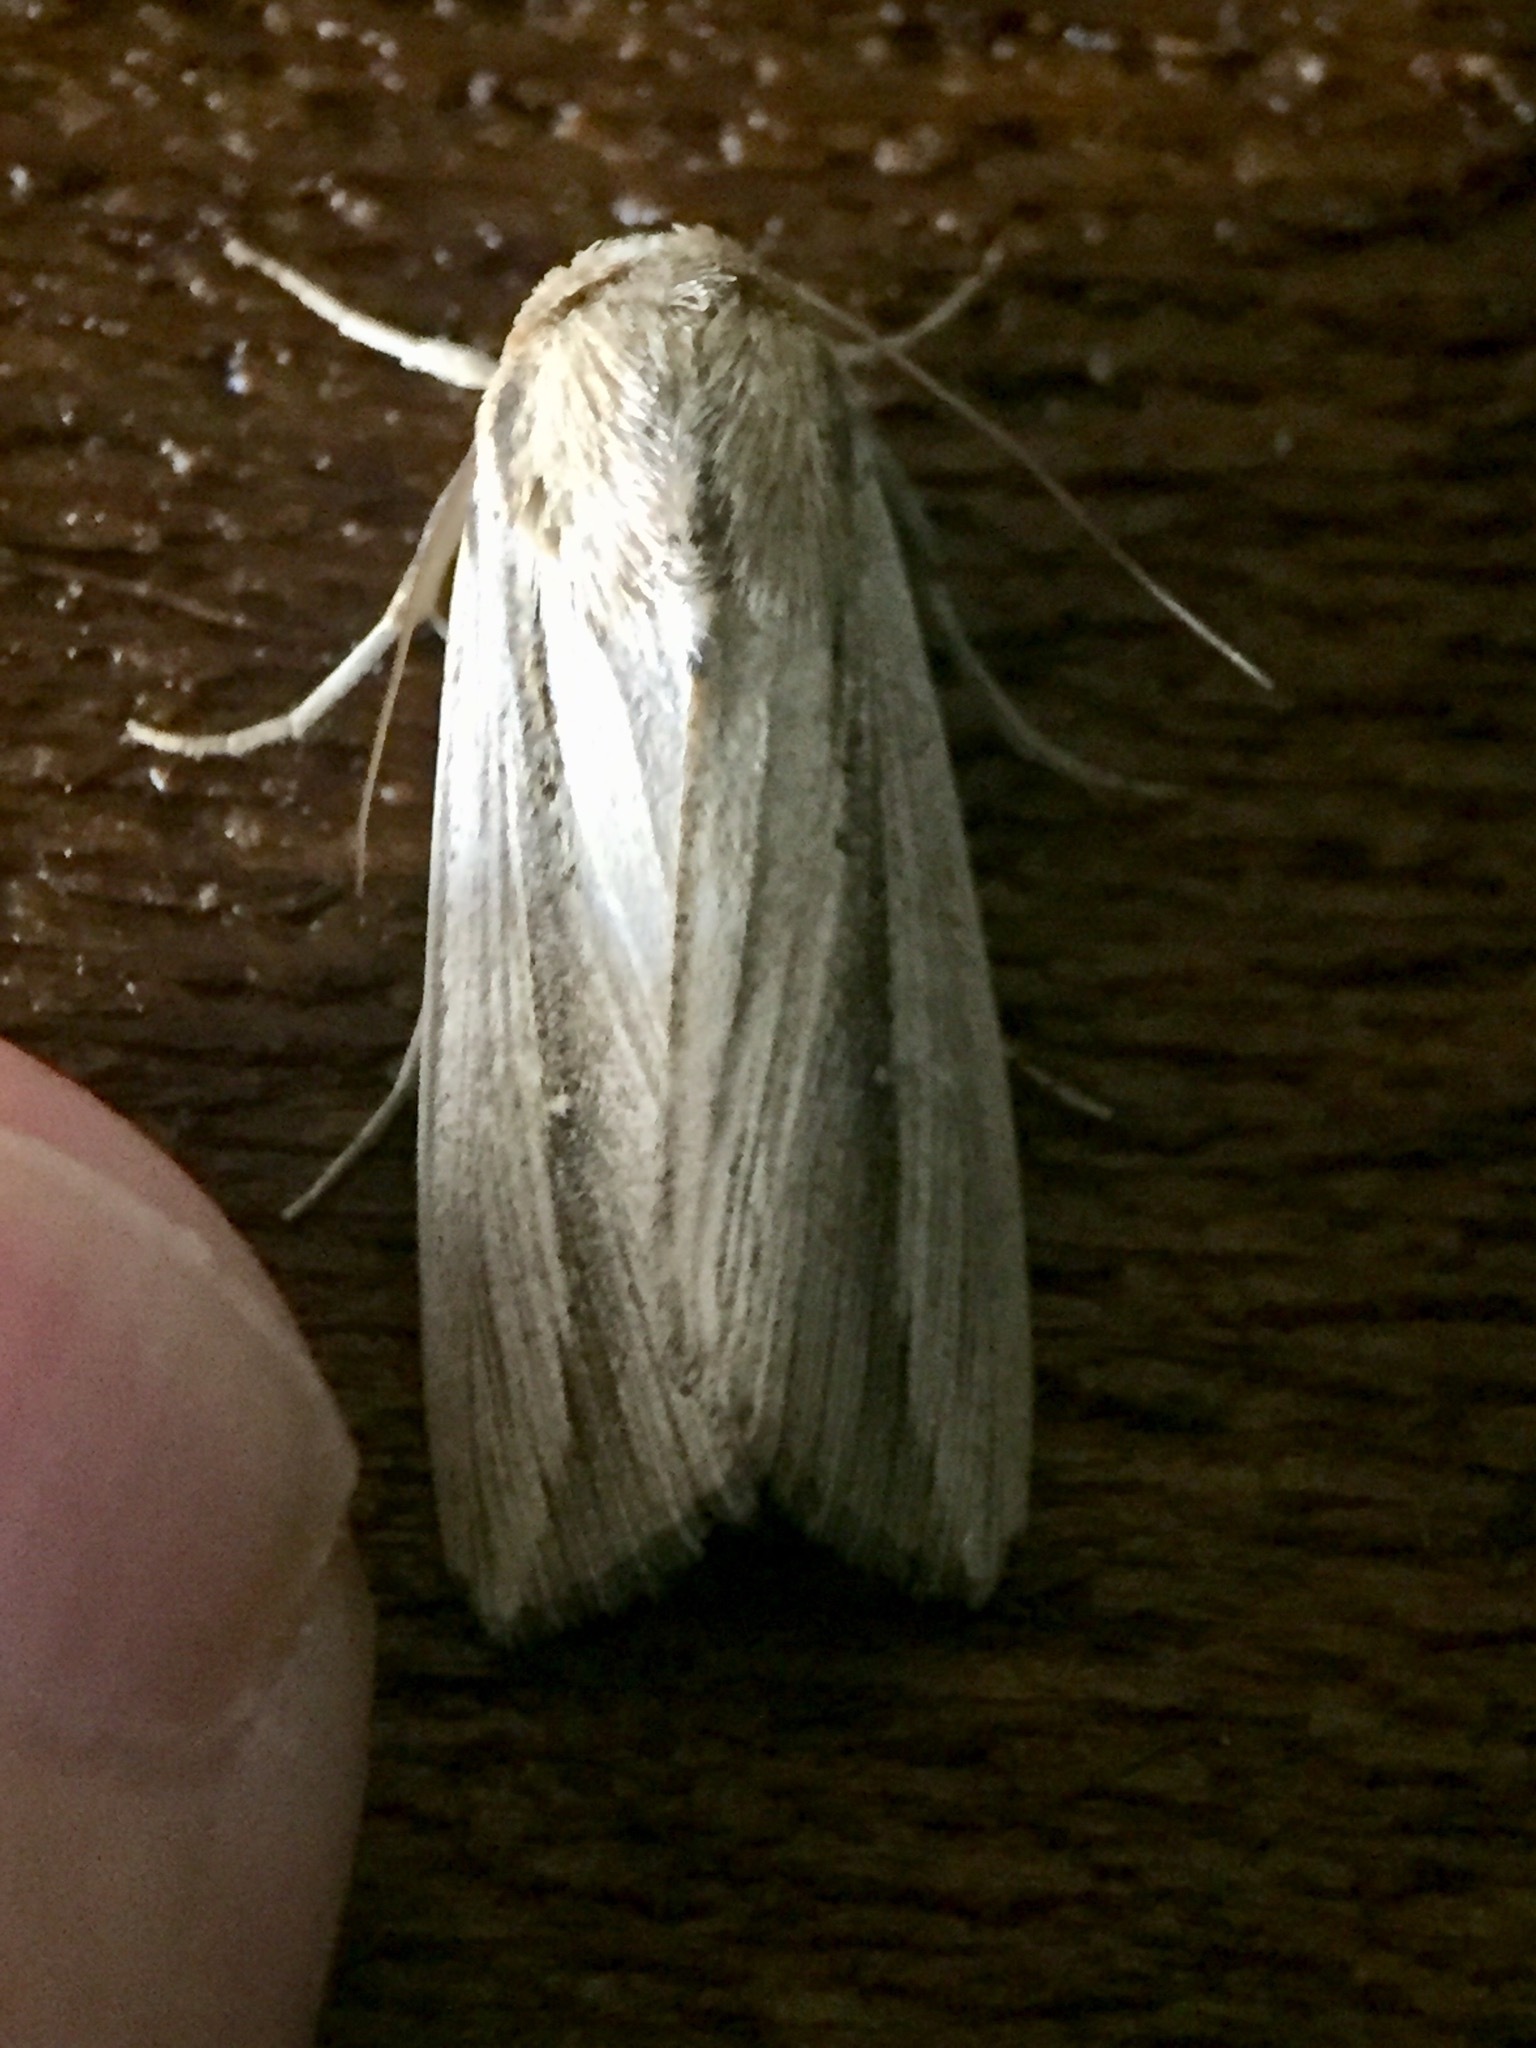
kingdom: Animalia
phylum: Arthropoda
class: Insecta
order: Lepidoptera
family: Noctuidae
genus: Leucania
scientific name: Leucania stenographa
